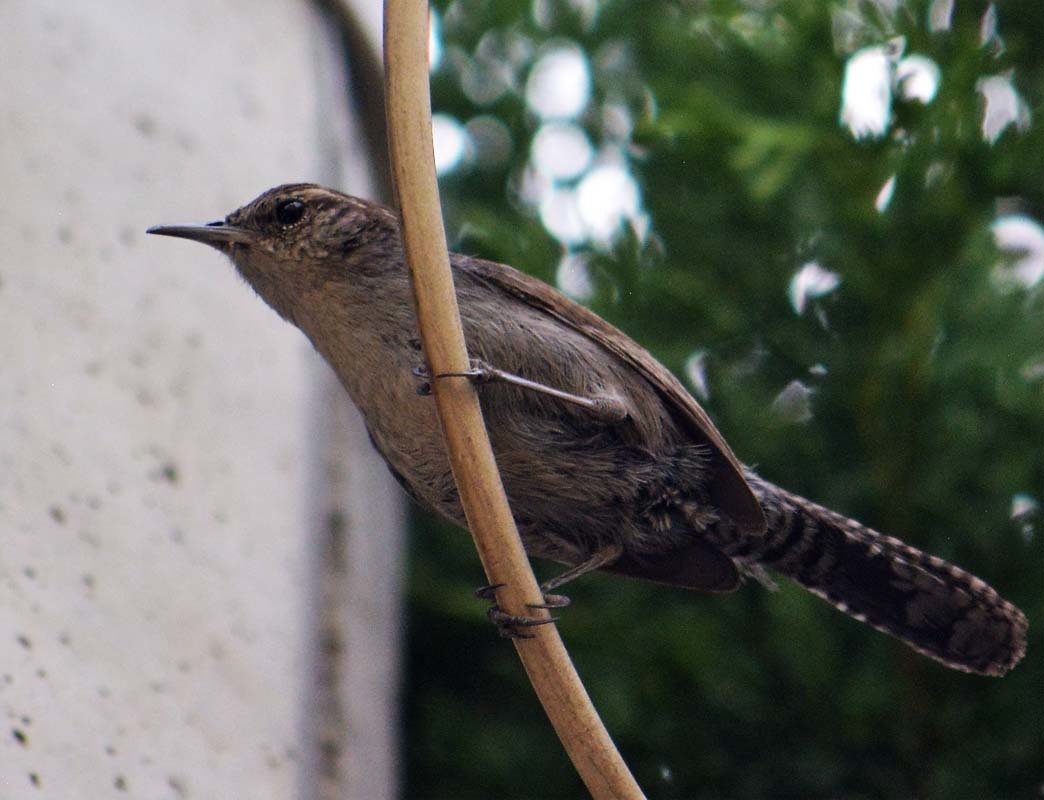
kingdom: Animalia
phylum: Chordata
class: Aves
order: Passeriformes
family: Troglodytidae
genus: Thryomanes
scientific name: Thryomanes bewickii
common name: Bewick's wren
